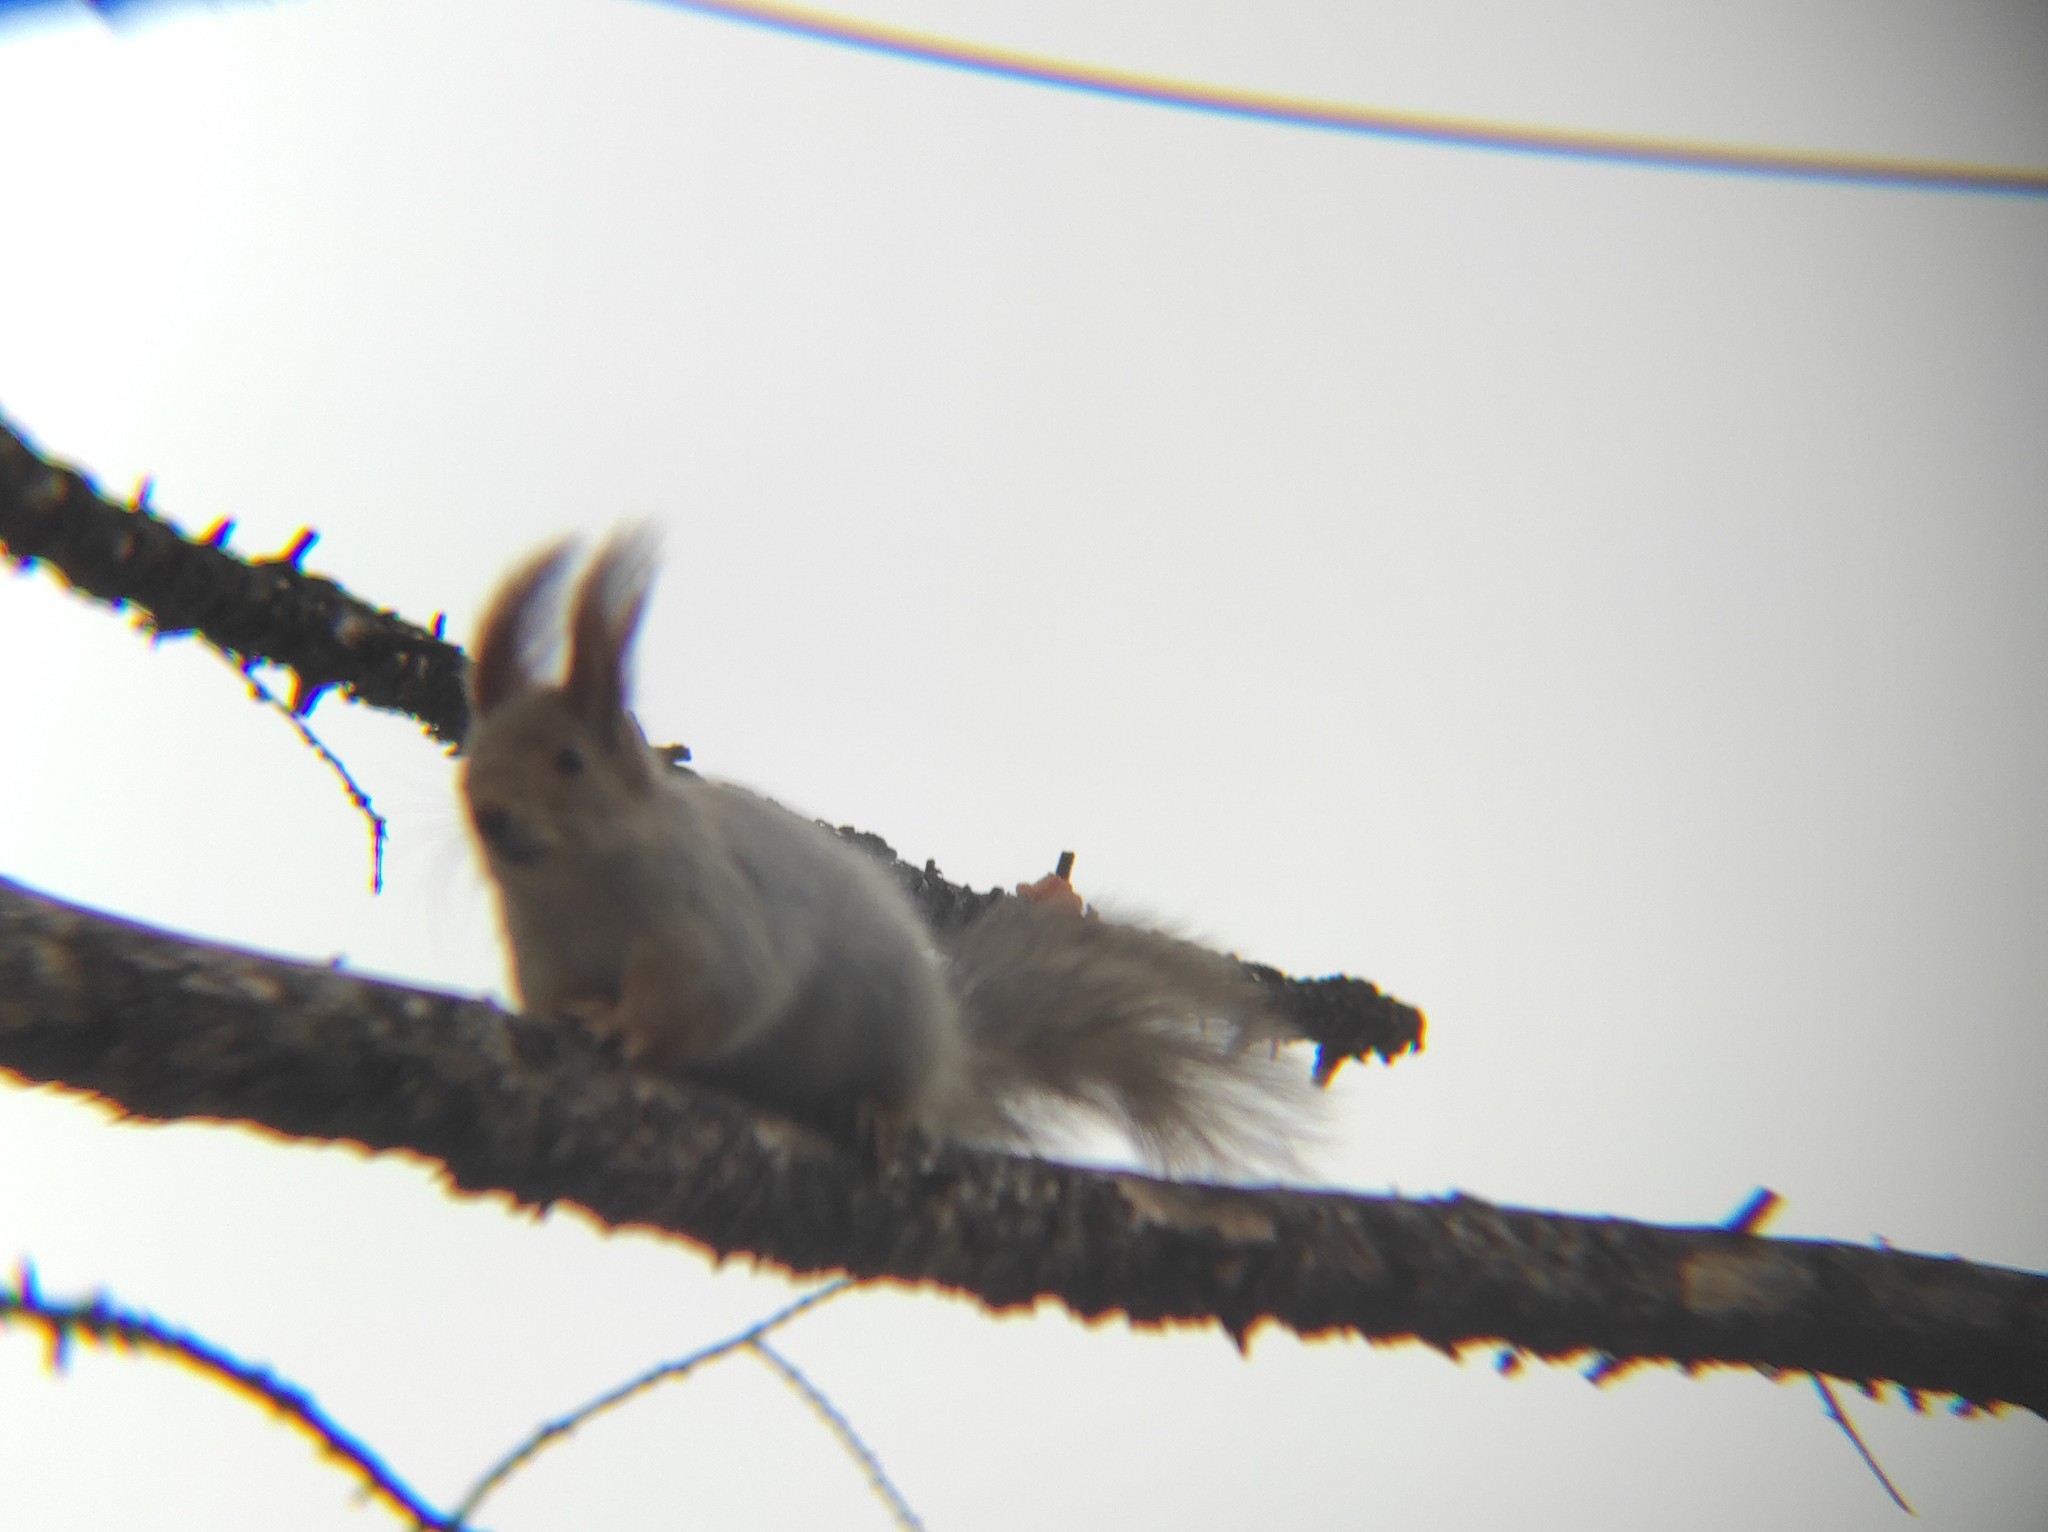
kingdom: Animalia
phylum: Chordata
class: Mammalia
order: Rodentia
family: Sciuridae
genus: Sciurus
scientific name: Sciurus vulgaris
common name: Eurasian red squirrel
